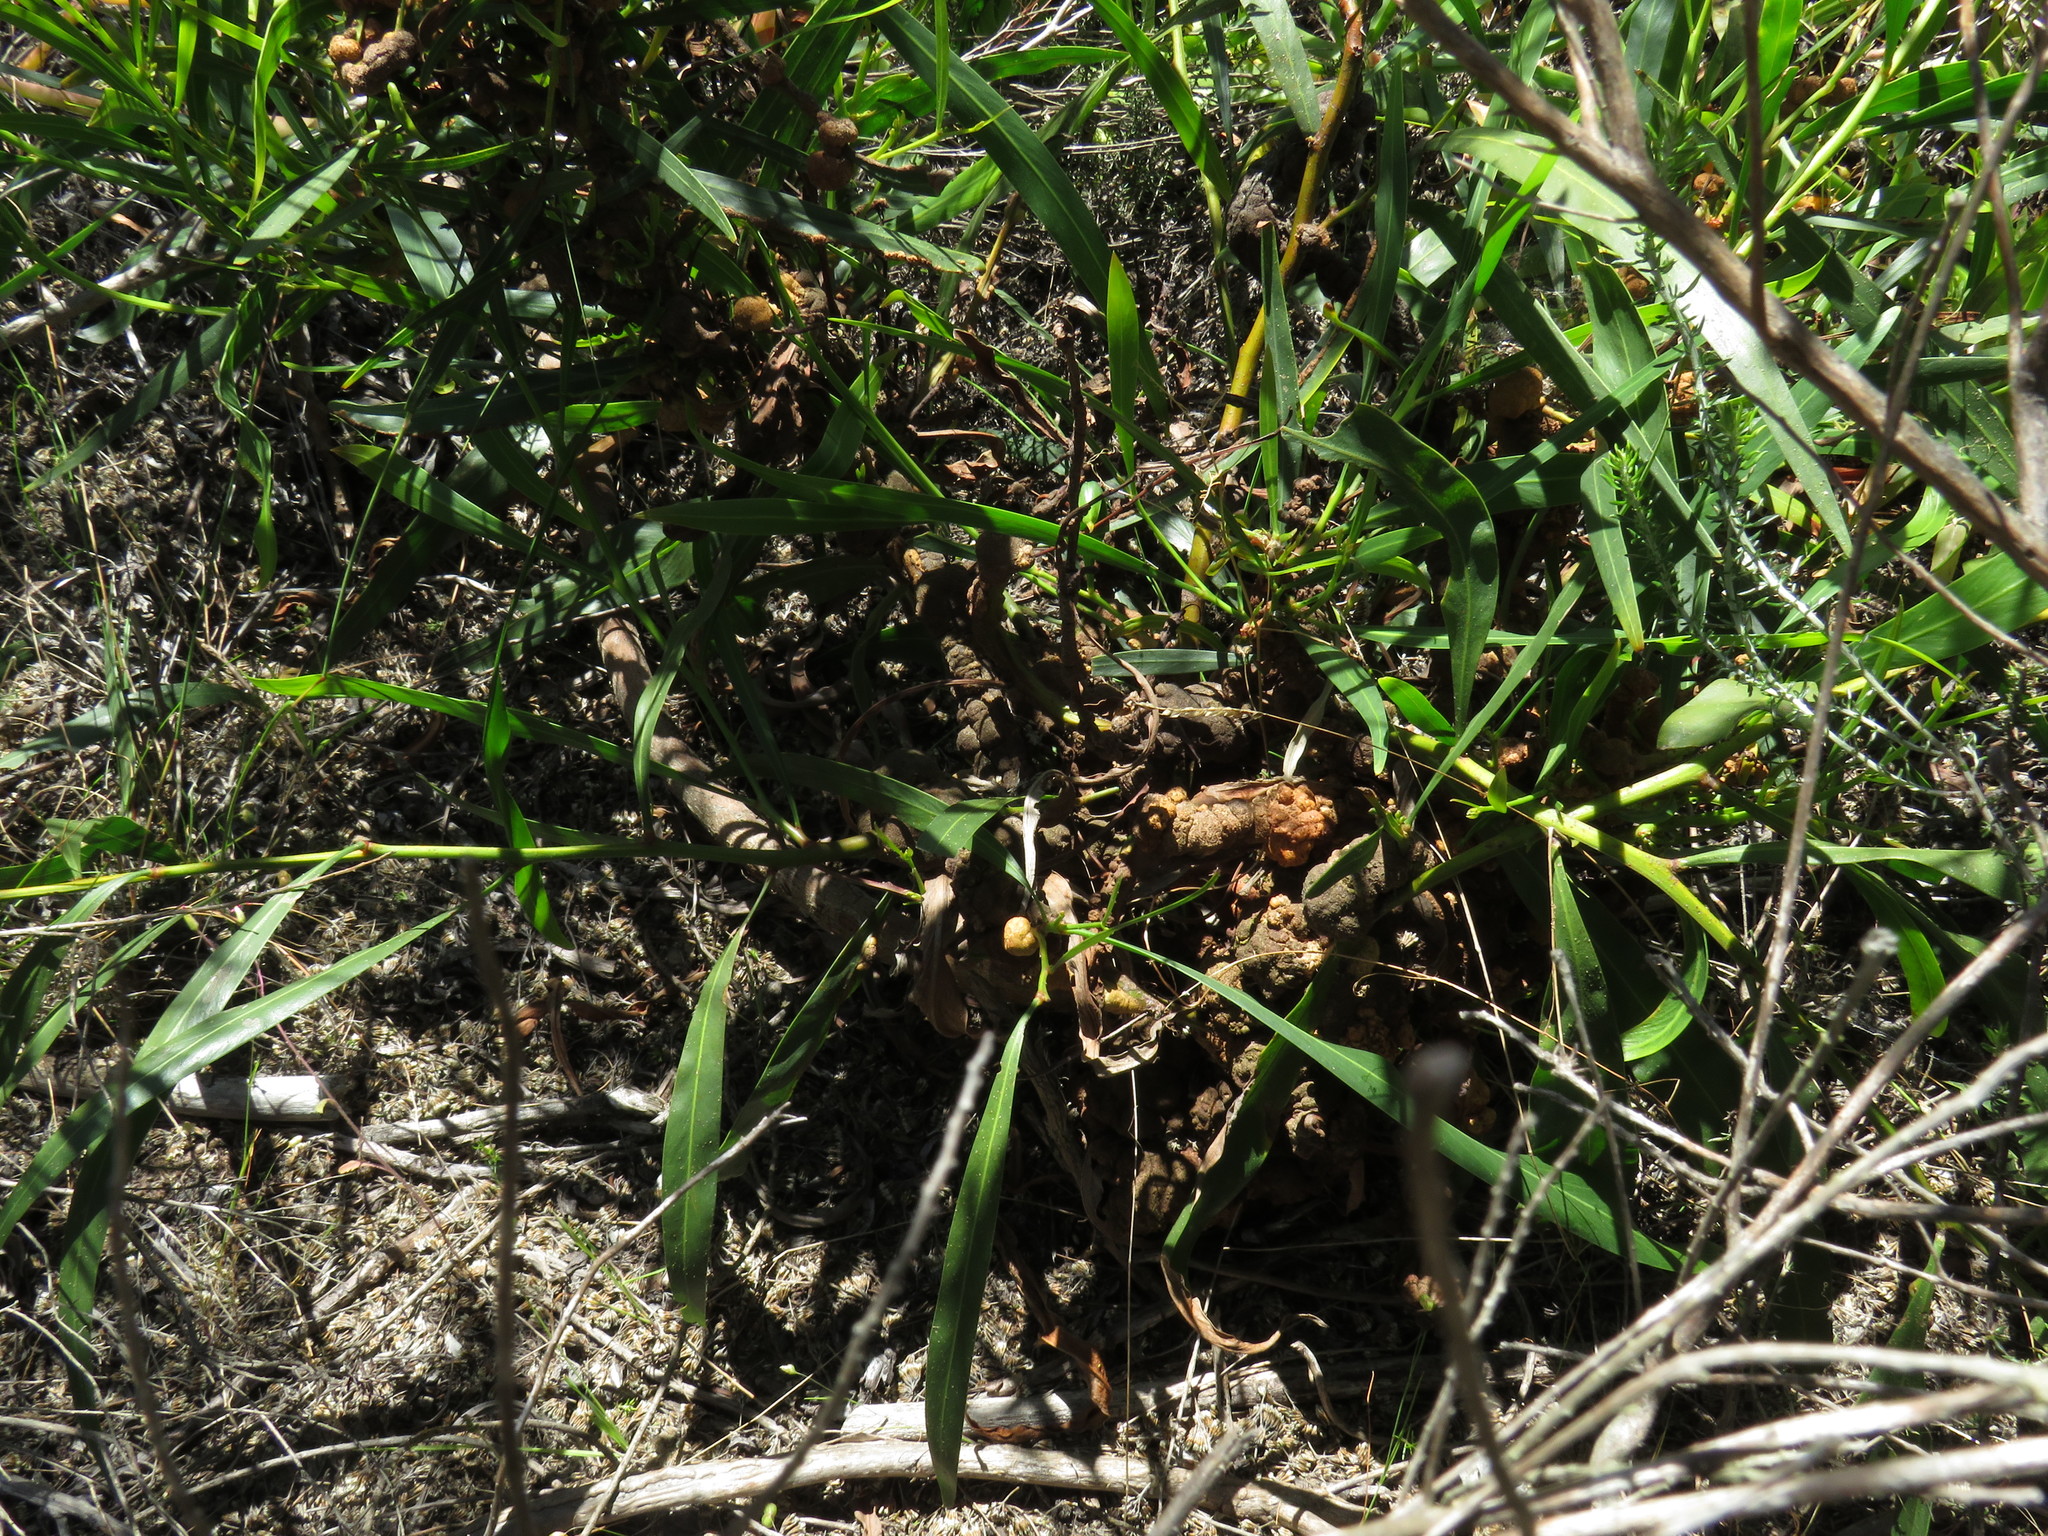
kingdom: Fungi
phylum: Basidiomycota
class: Pucciniomycetes
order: Pucciniales
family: Uromycladiaceae
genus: Uromycladium
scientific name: Uromycladium morrisii
